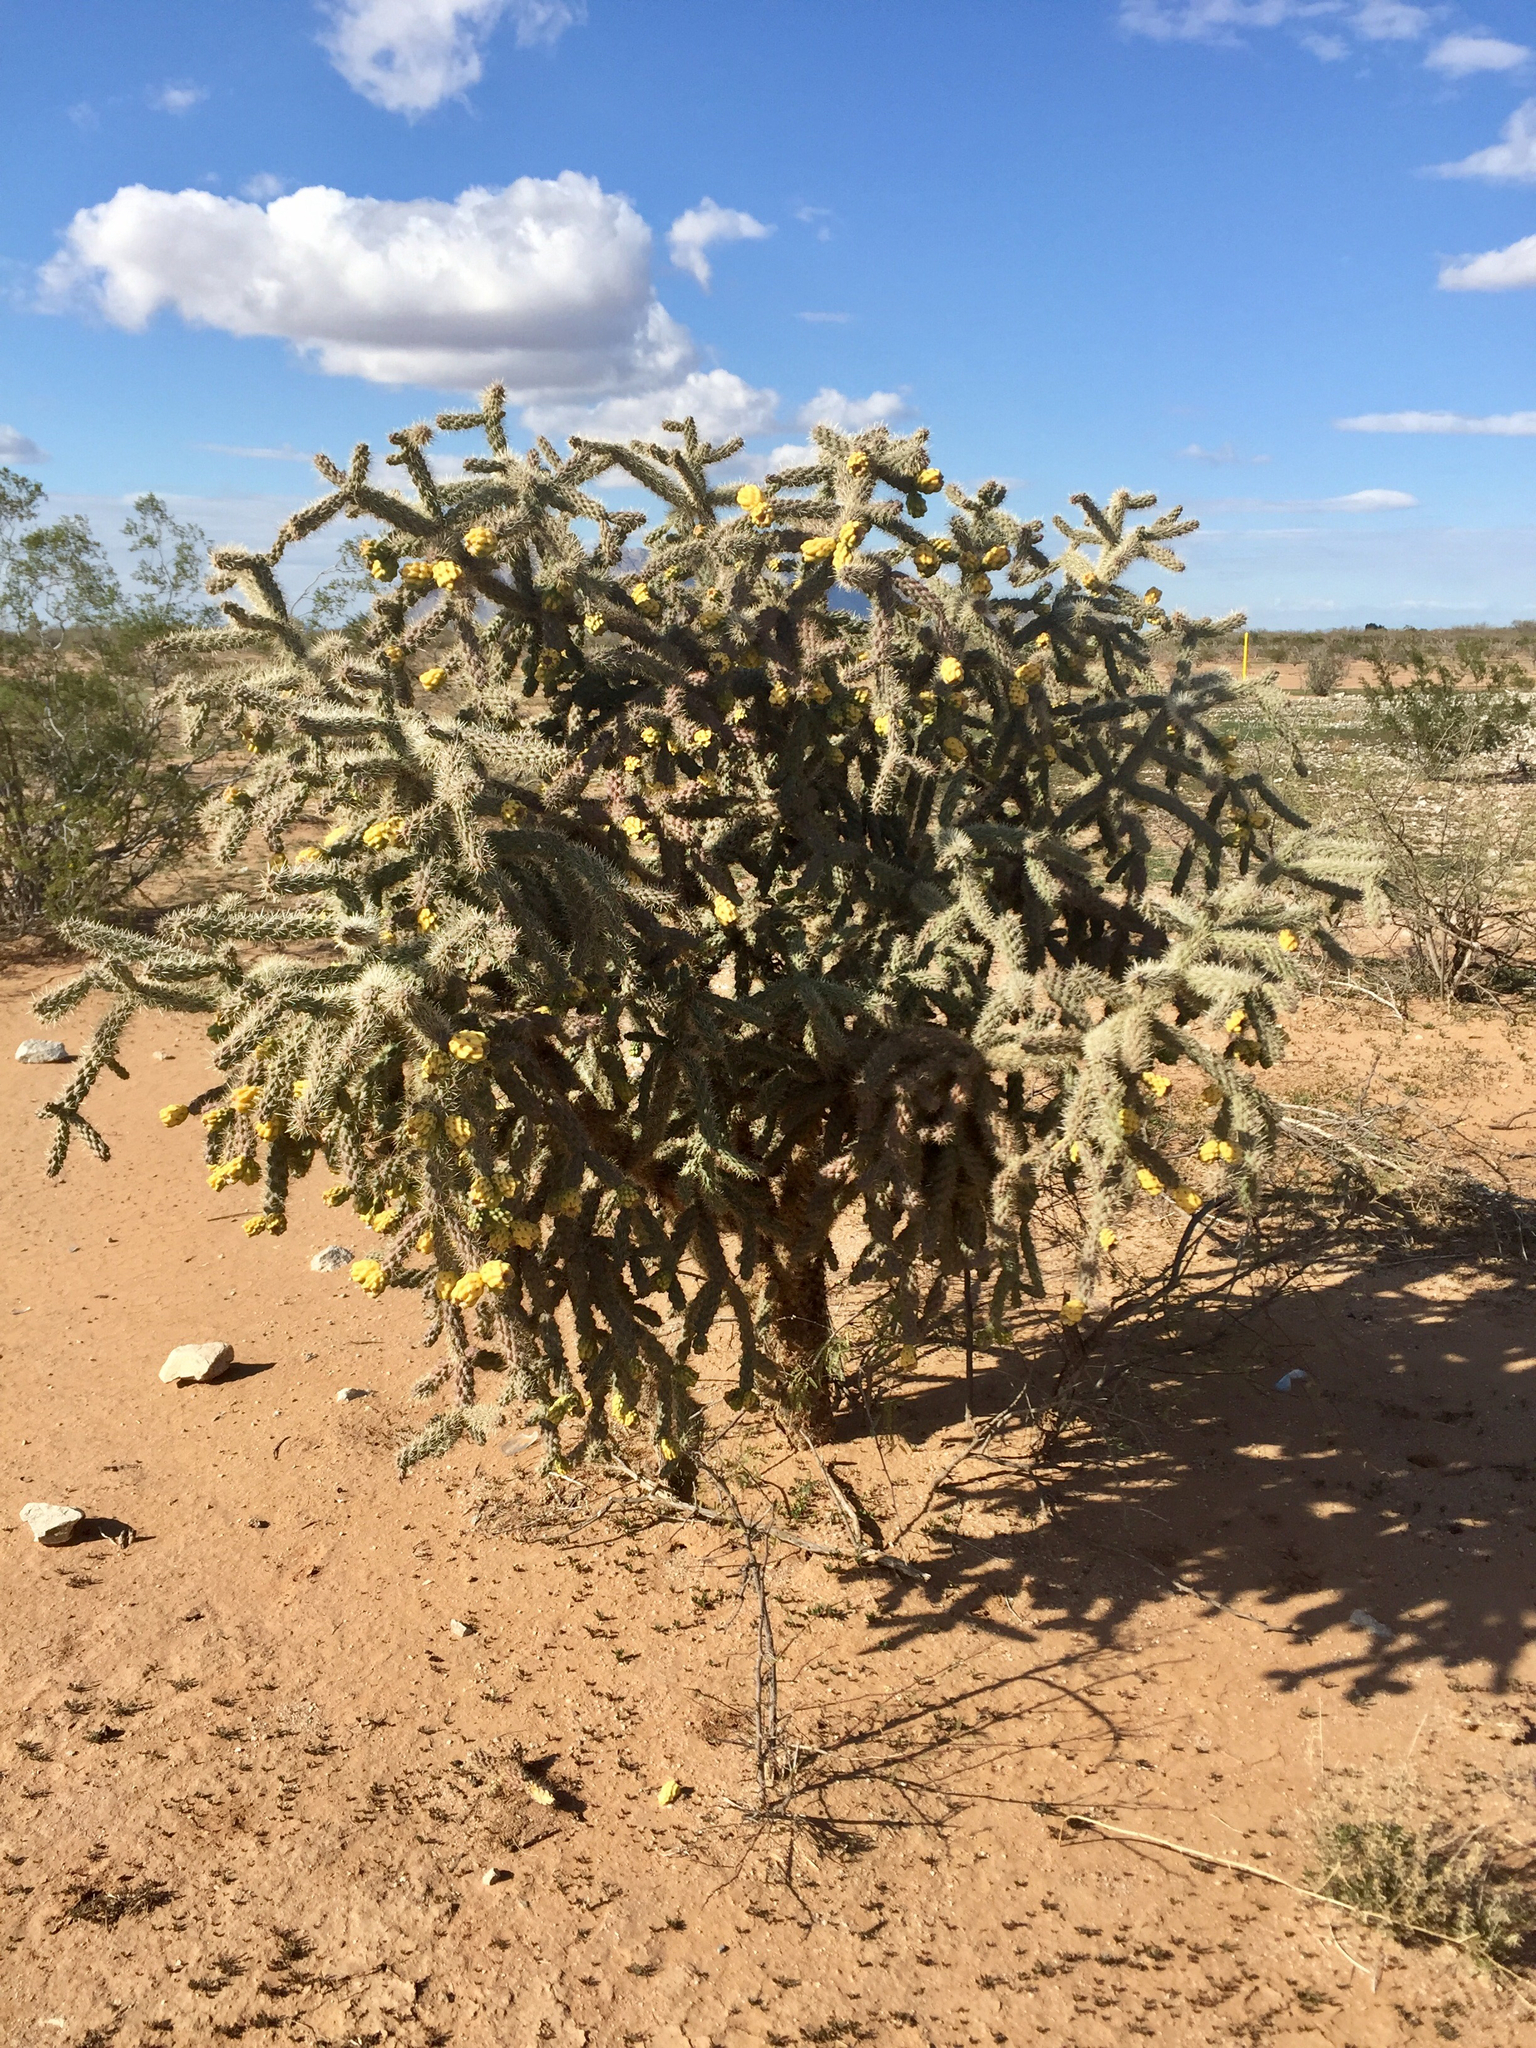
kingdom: Plantae
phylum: Tracheophyta
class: Magnoliopsida
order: Caryophyllales
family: Cactaceae
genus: Cylindropuntia
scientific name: Cylindropuntia imbricata
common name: Candelabrum cactus
